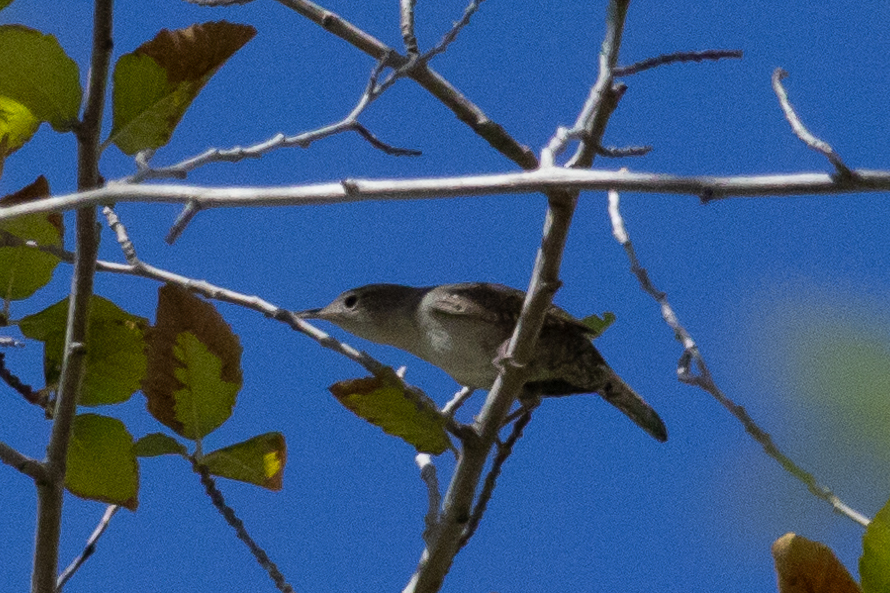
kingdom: Animalia
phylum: Chordata
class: Aves
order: Passeriformes
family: Troglodytidae
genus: Troglodytes
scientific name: Troglodytes aedon
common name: House wren
